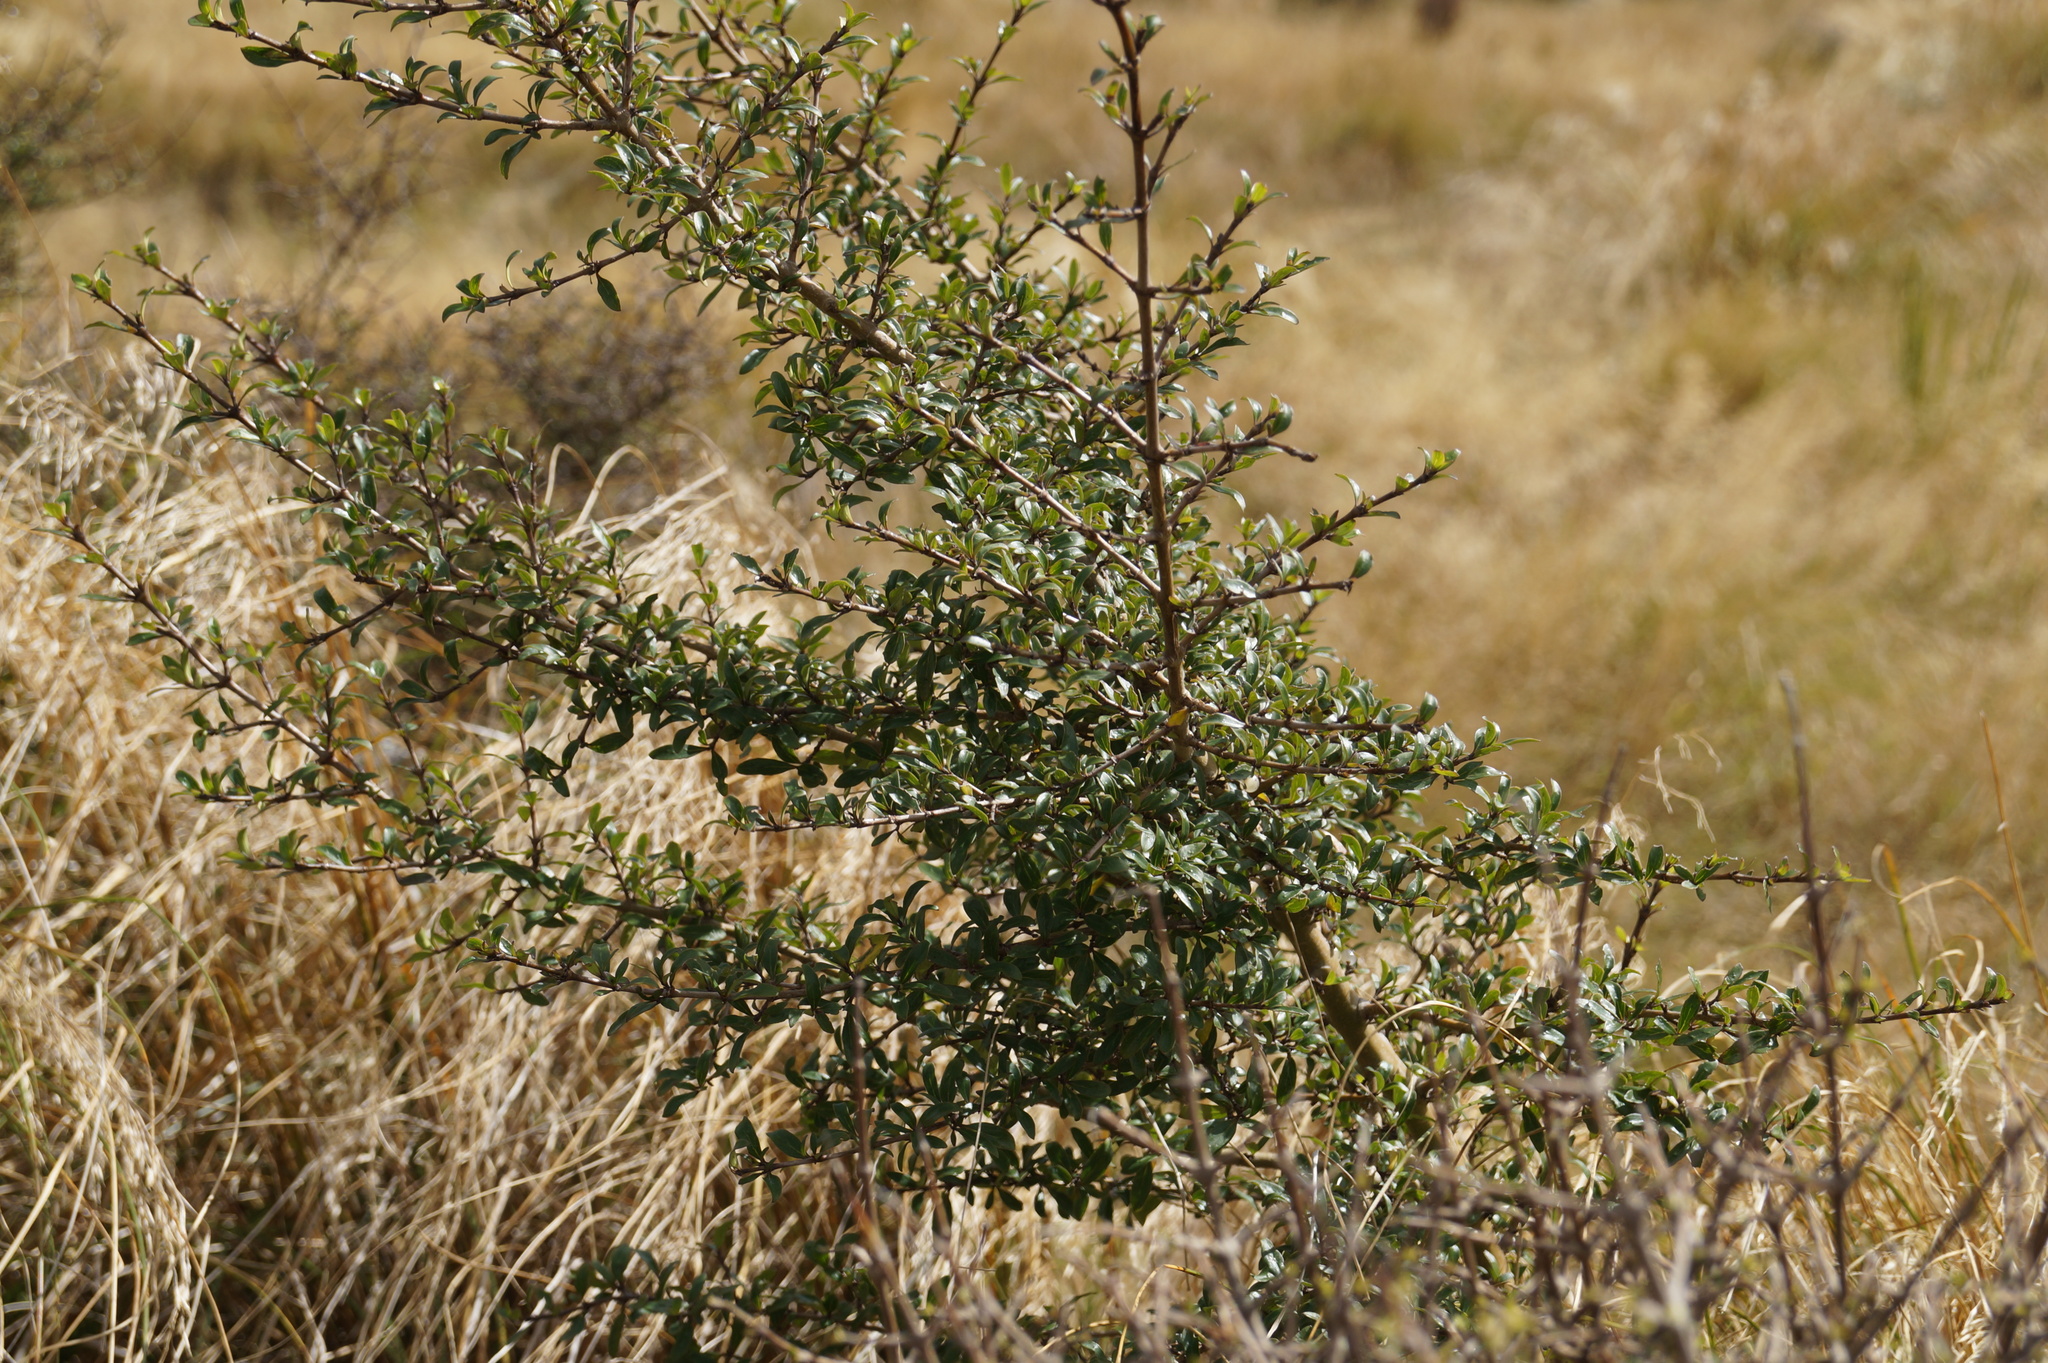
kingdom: Plantae
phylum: Tracheophyta
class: Magnoliopsida
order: Gentianales
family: Rubiaceae
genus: Coprosma
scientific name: Coprosma propinqua
